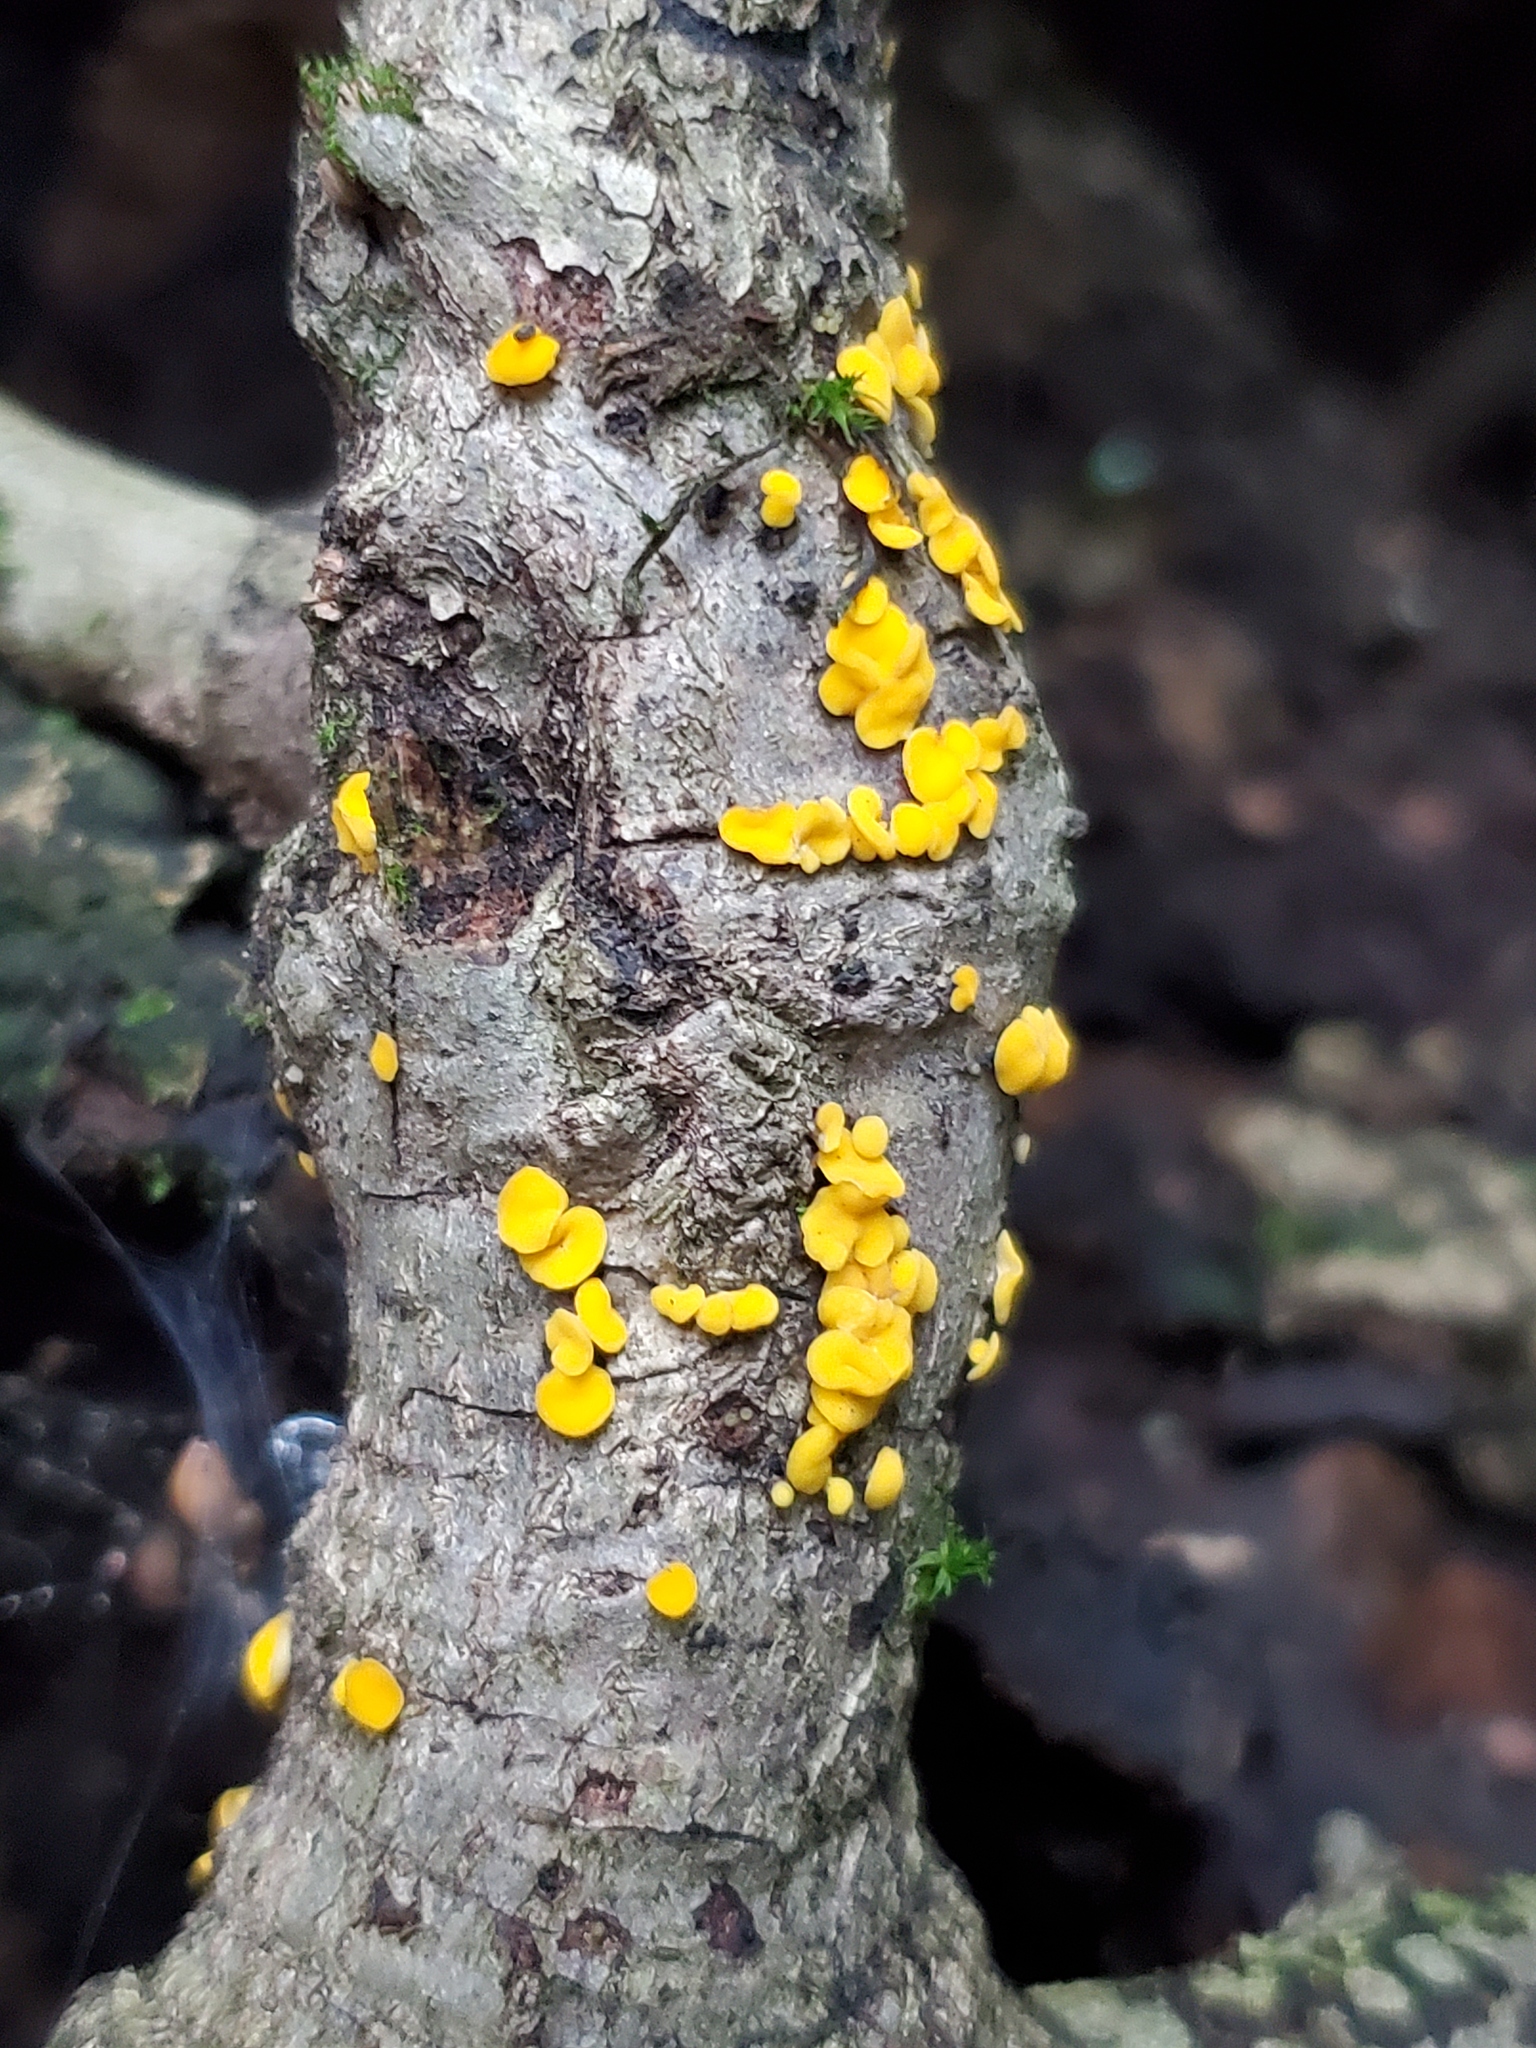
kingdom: Fungi
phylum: Ascomycota
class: Leotiomycetes
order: Helotiales
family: Pezizellaceae
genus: Calycina
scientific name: Calycina citrina
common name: Yellow fairy cups
